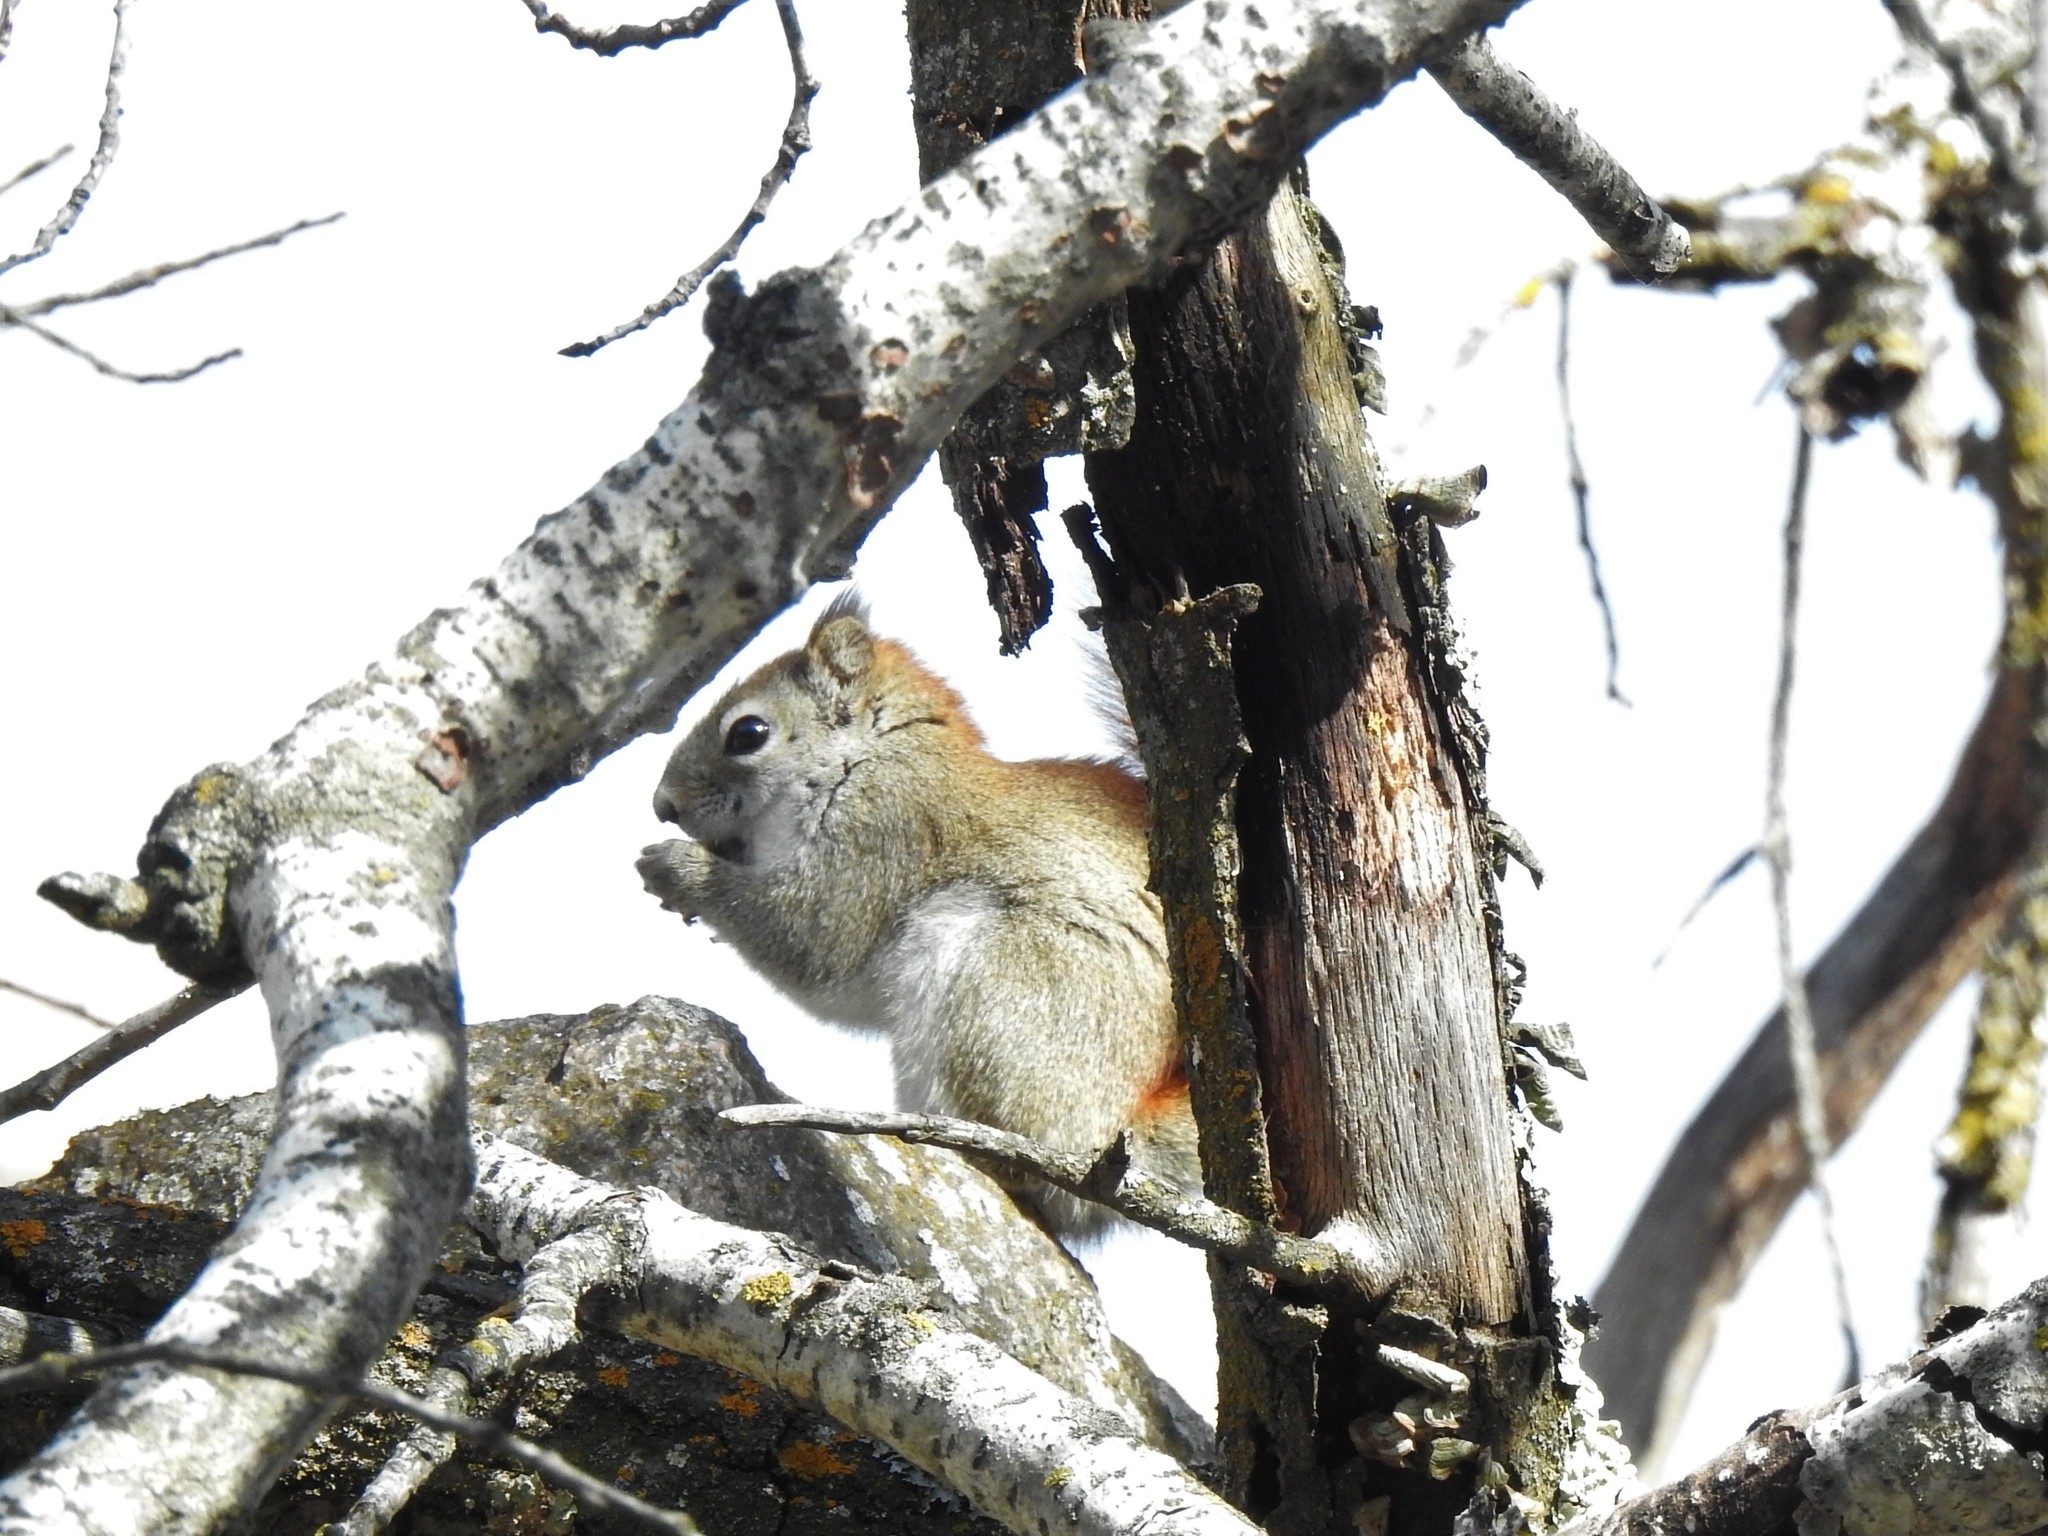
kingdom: Animalia
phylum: Chordata
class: Mammalia
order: Rodentia
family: Sciuridae
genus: Tamiasciurus
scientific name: Tamiasciurus hudsonicus
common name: Red squirrel
